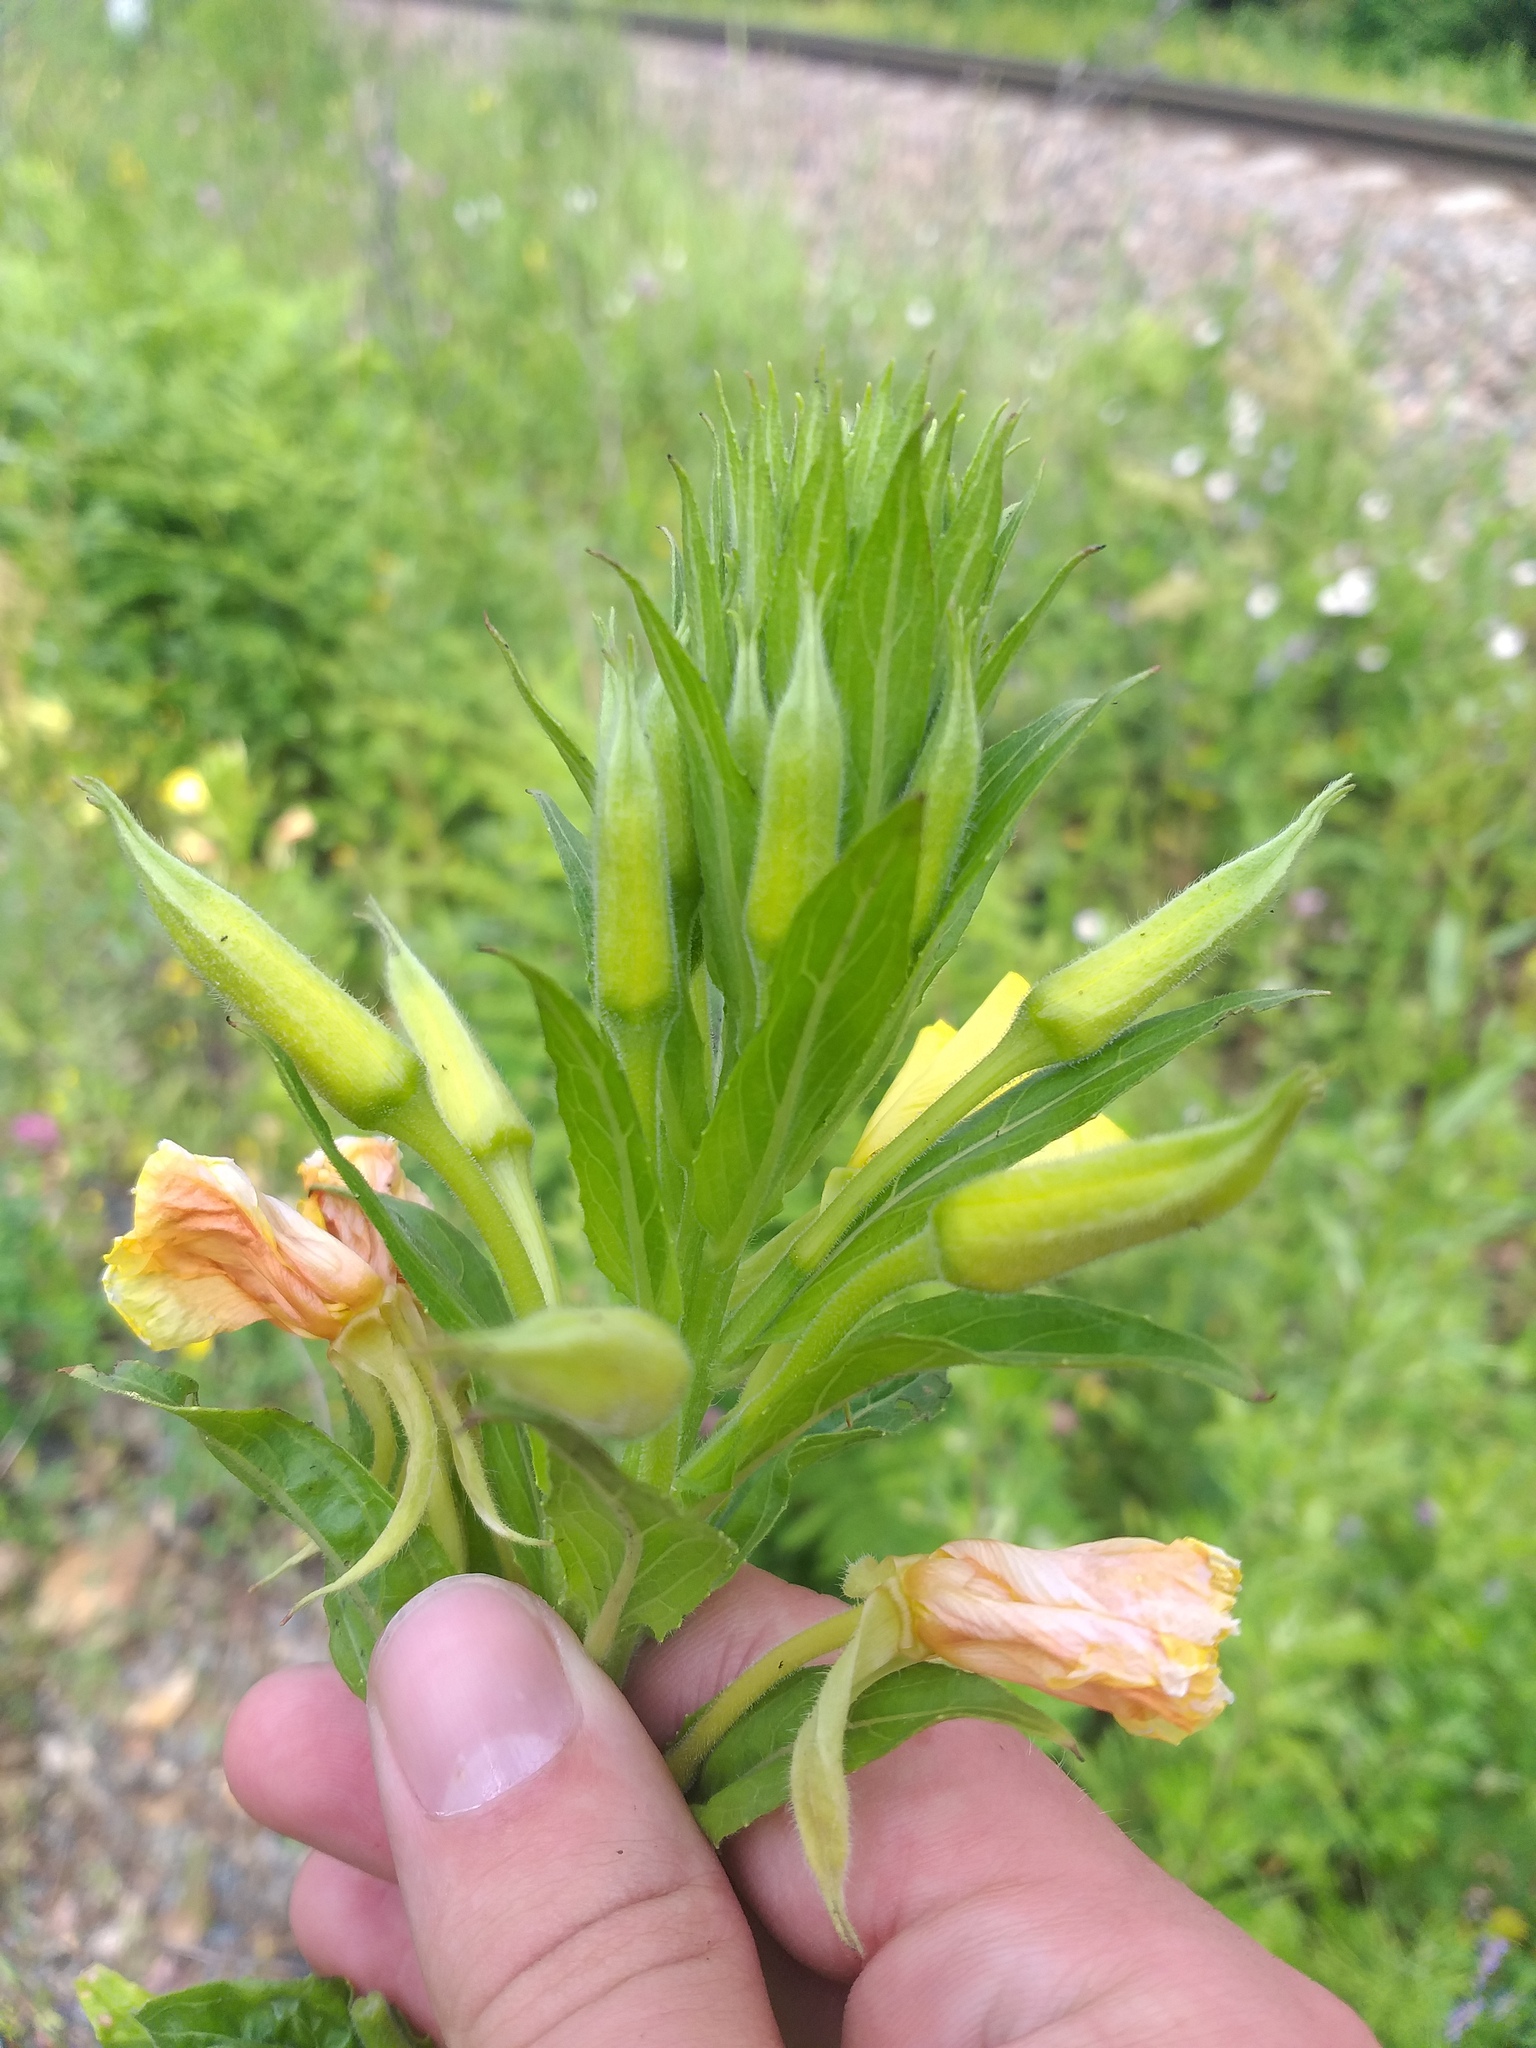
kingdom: Plantae
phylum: Tracheophyta
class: Magnoliopsida
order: Myrtales
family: Onagraceae
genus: Oenothera
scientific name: Oenothera biennis
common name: Common evening-primrose
